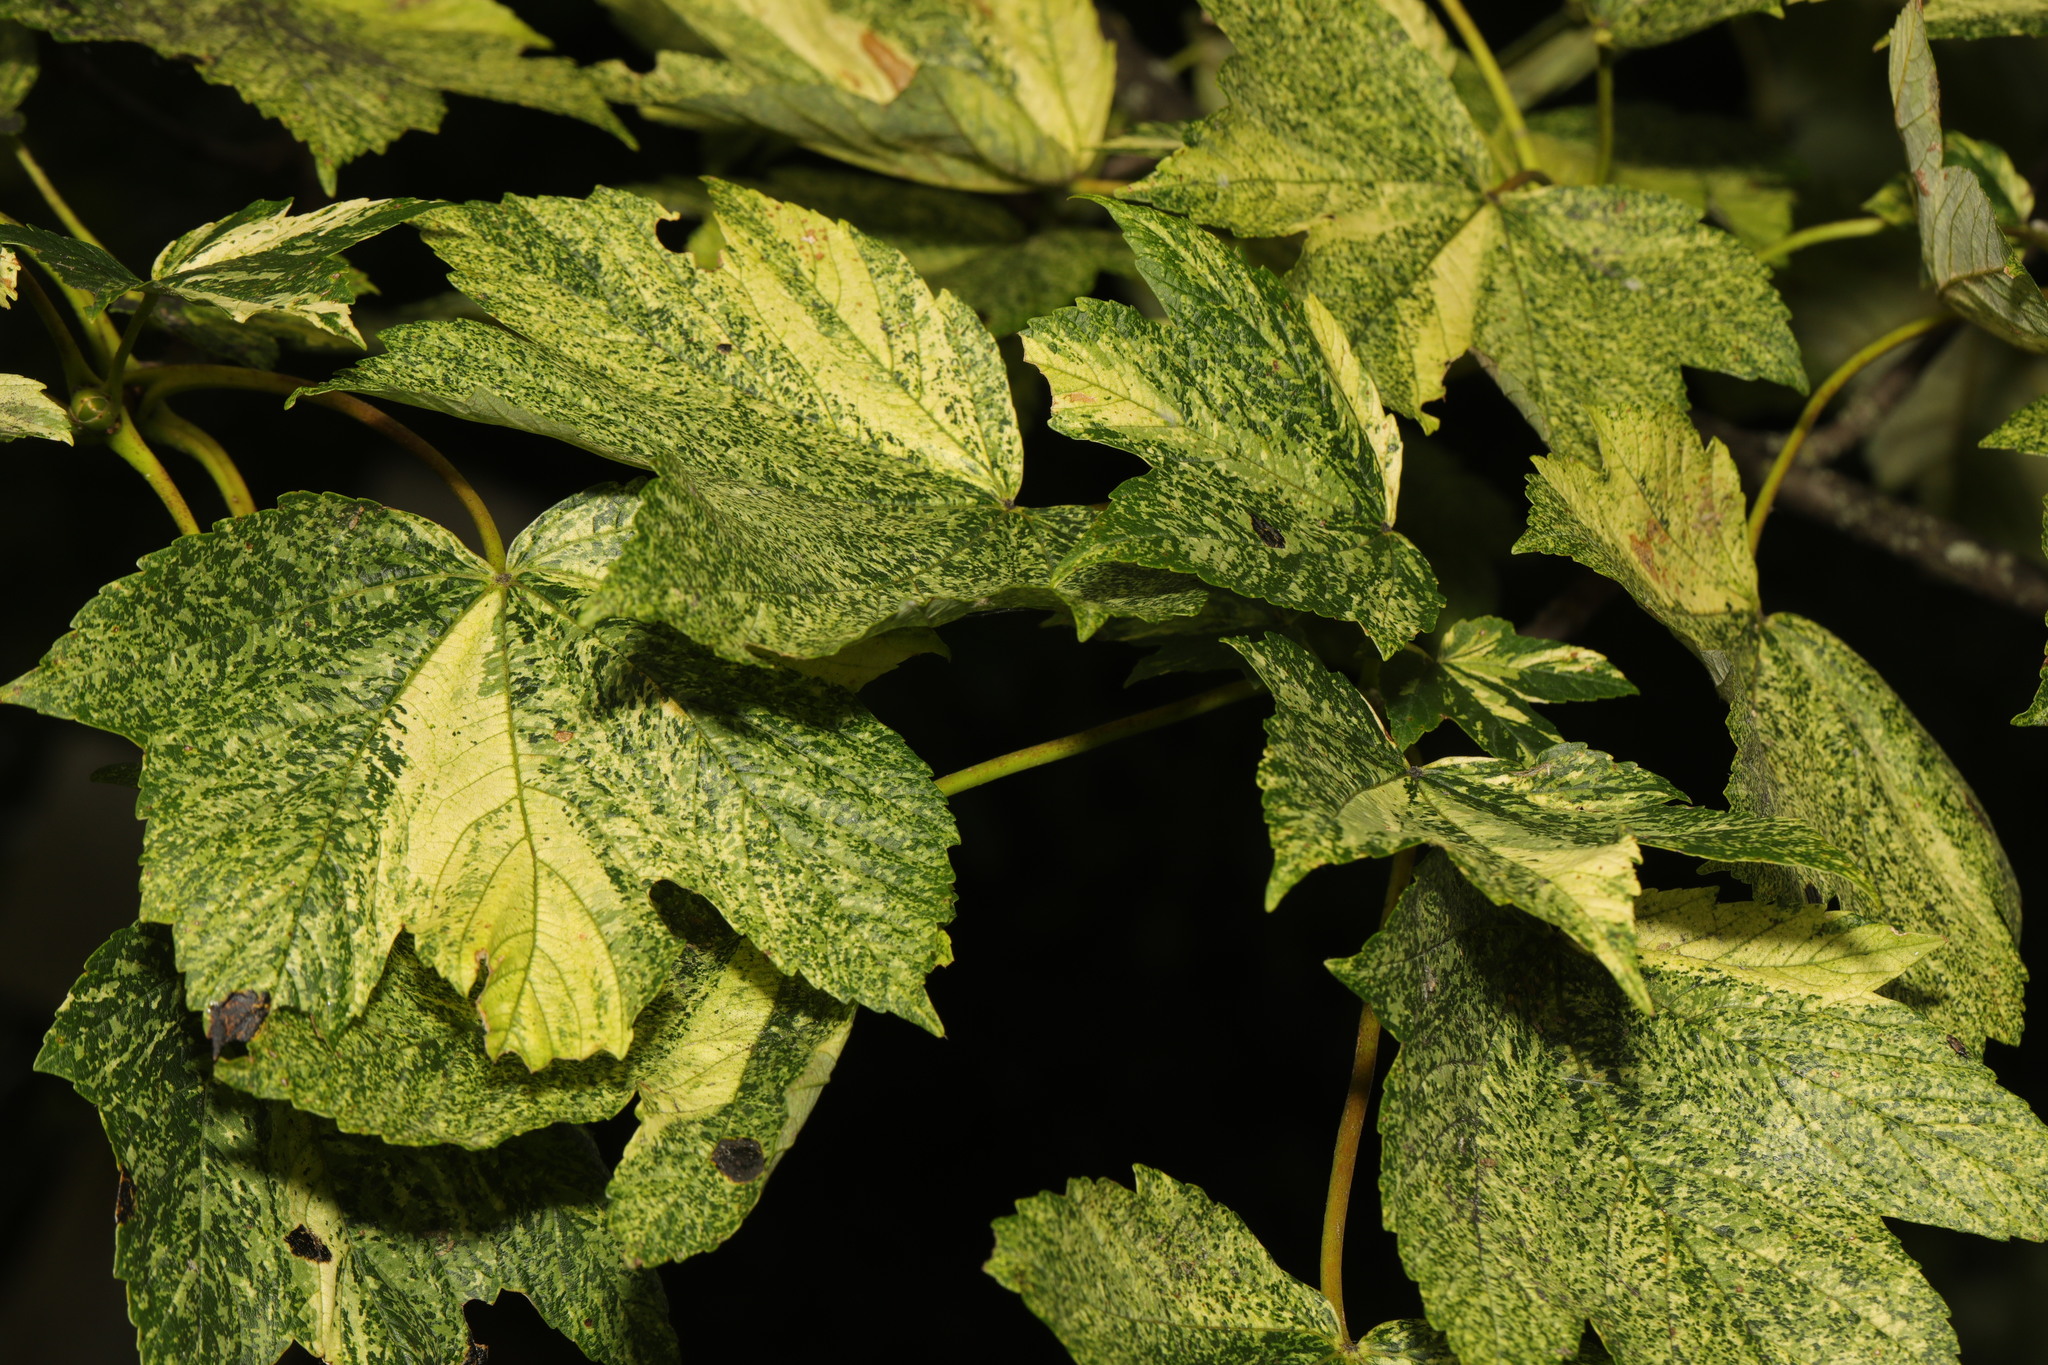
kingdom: Plantae
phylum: Tracheophyta
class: Magnoliopsida
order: Sapindales
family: Sapindaceae
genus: Acer
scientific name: Acer pseudoplatanus
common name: Sycamore
